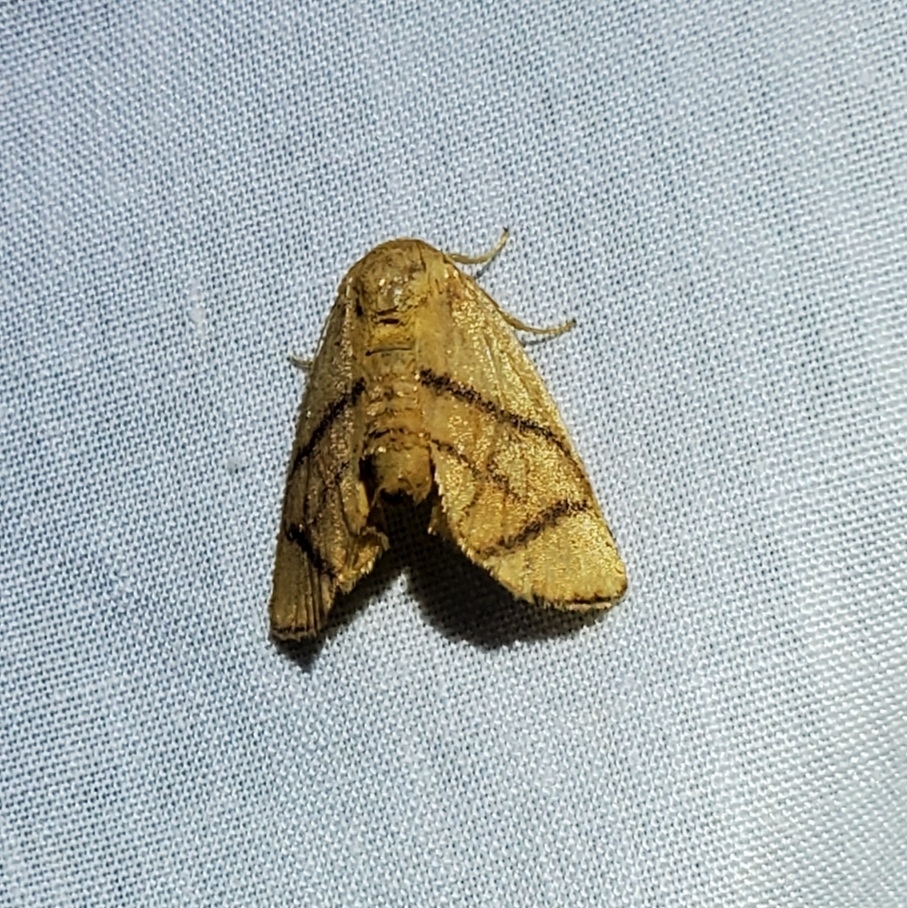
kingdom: Animalia
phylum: Arthropoda
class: Insecta
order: Lepidoptera
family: Limacodidae
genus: Apoda
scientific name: Apoda y-inversa
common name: Yellow-collared slug moth
